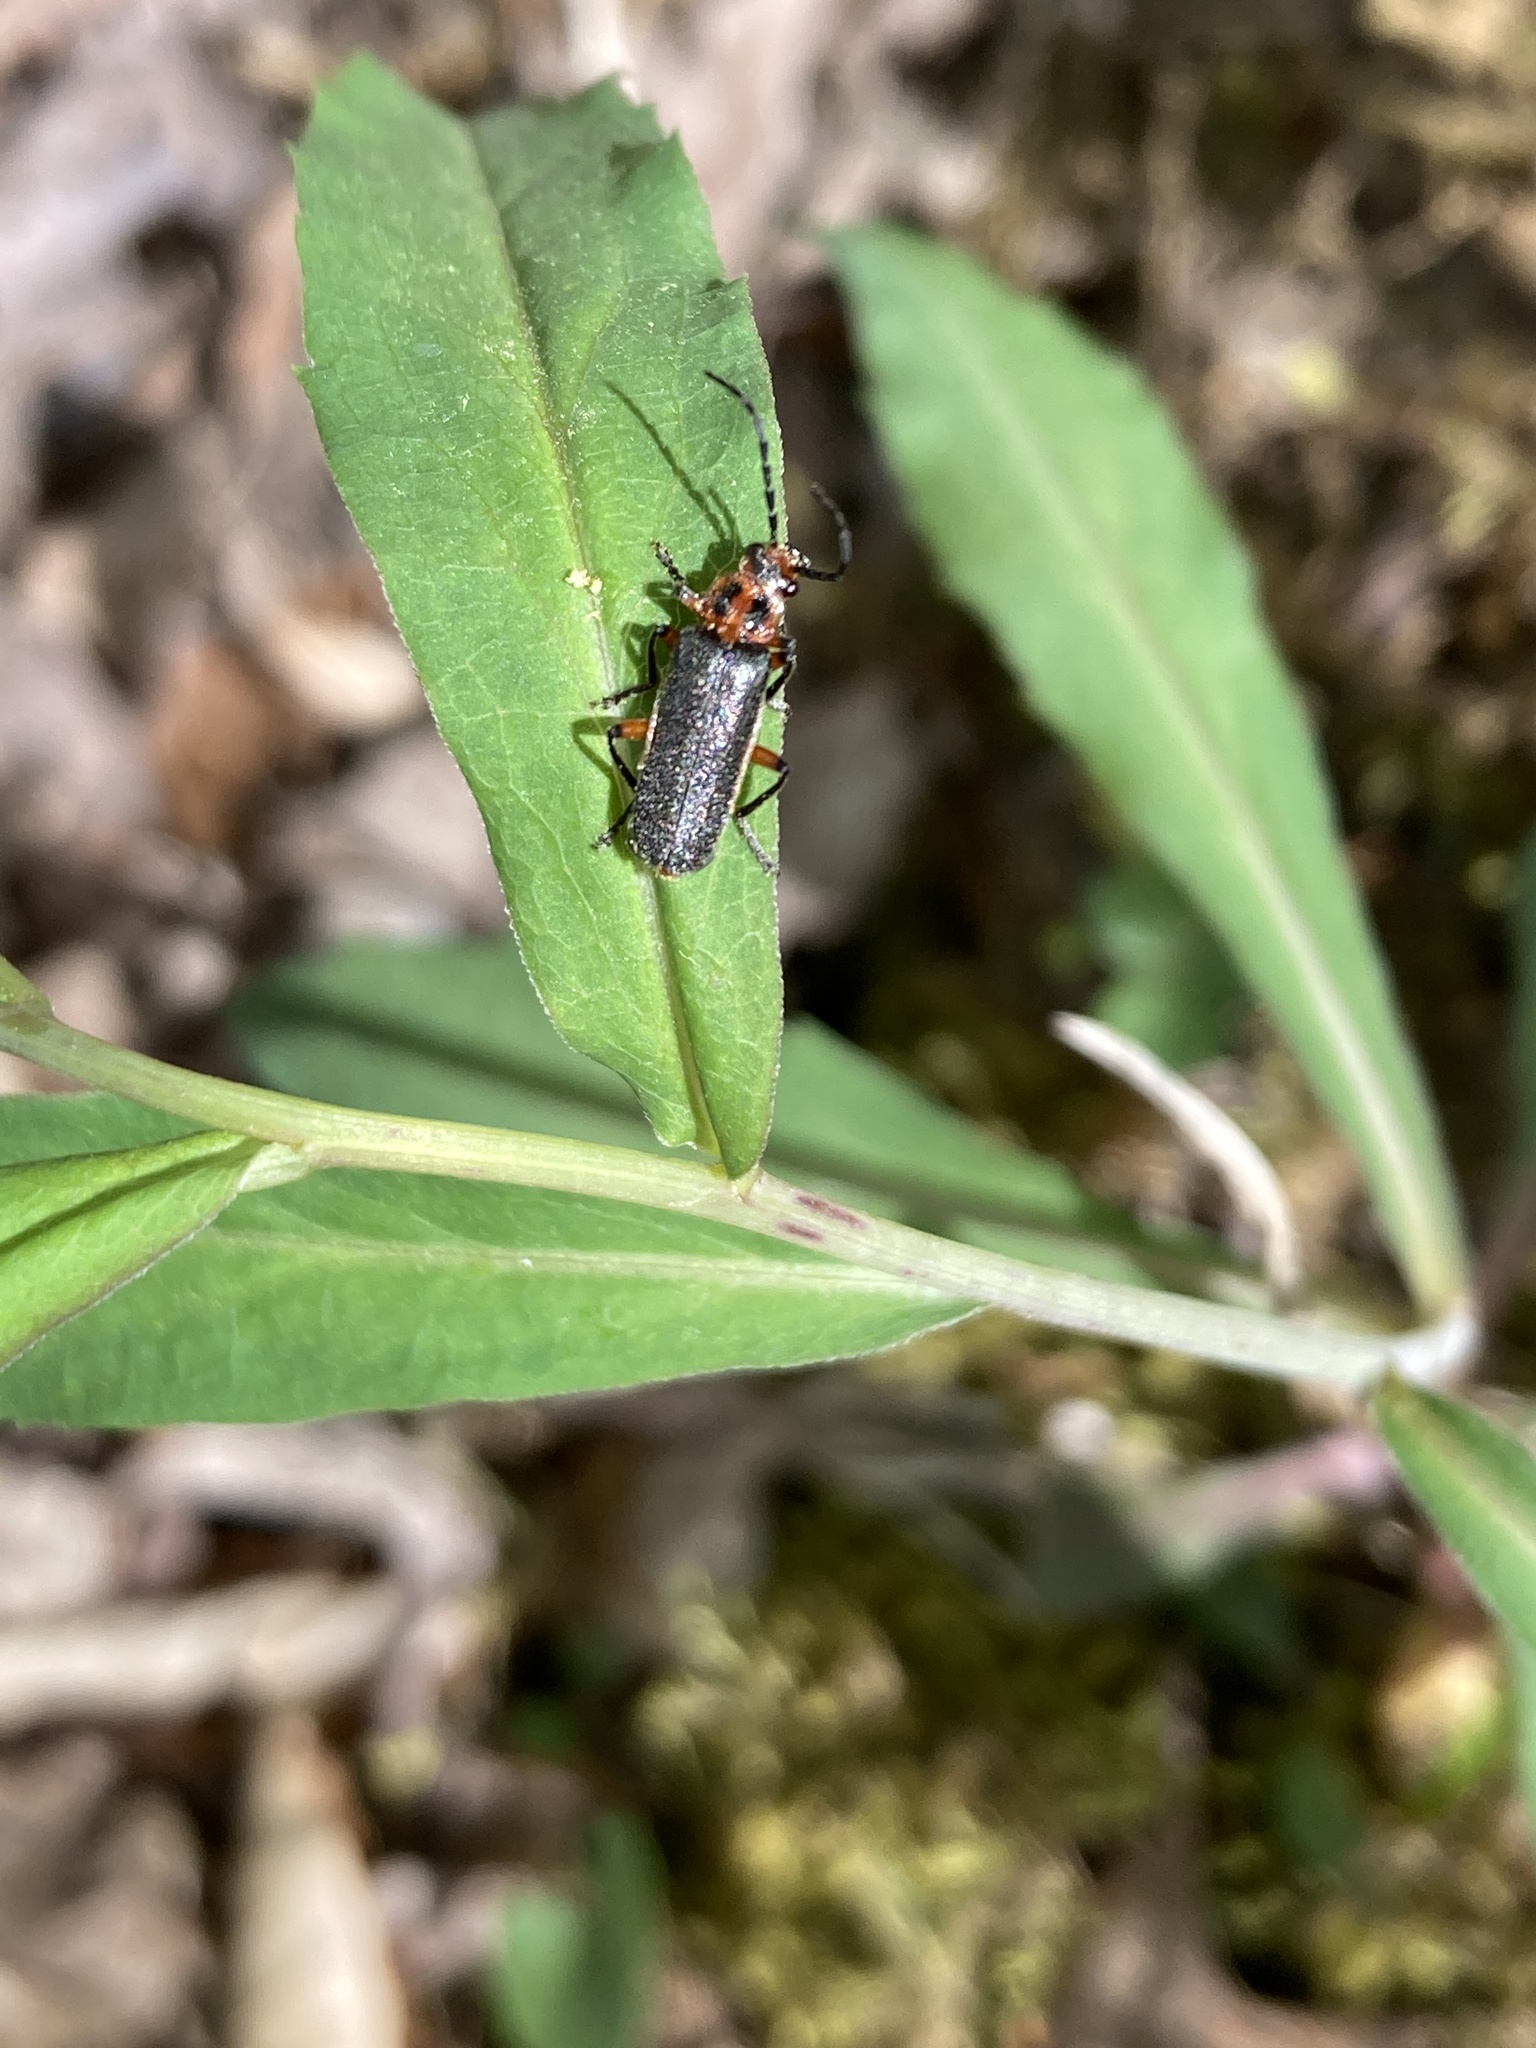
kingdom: Animalia
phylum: Arthropoda
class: Insecta
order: Coleoptera
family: Cantharidae
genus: Atalantycha
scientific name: Atalantycha bilineata
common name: Two-lined leatherwing
